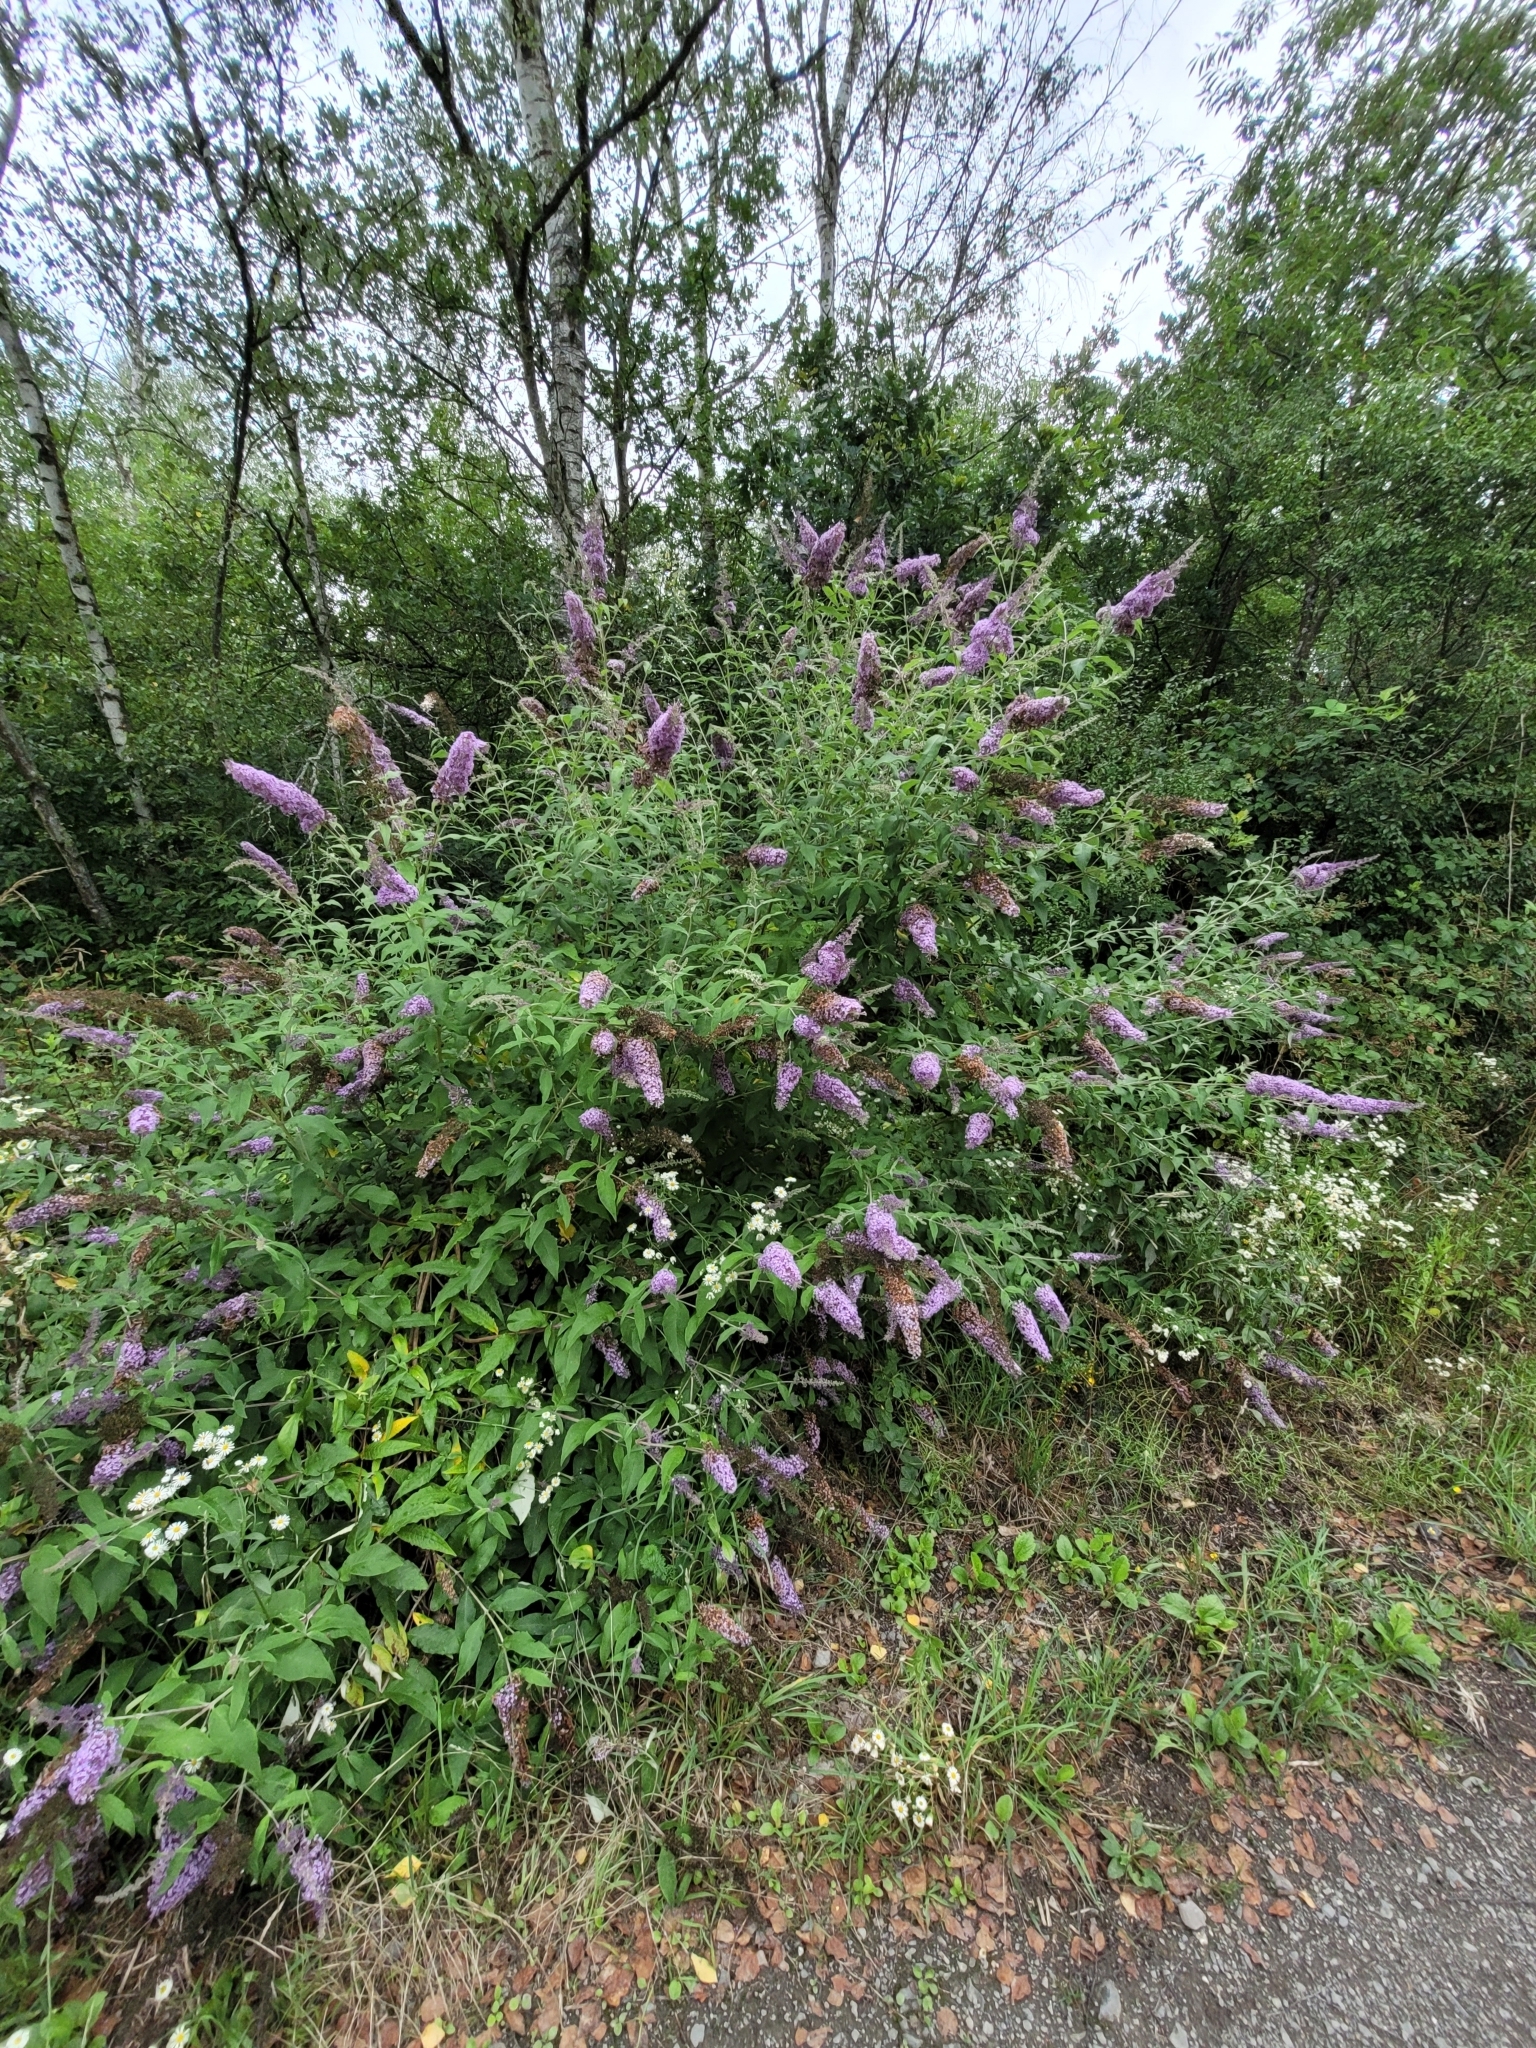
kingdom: Plantae
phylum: Tracheophyta
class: Magnoliopsida
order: Lamiales
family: Scrophulariaceae
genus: Buddleja
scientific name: Buddleja davidii
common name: Butterfly-bush
